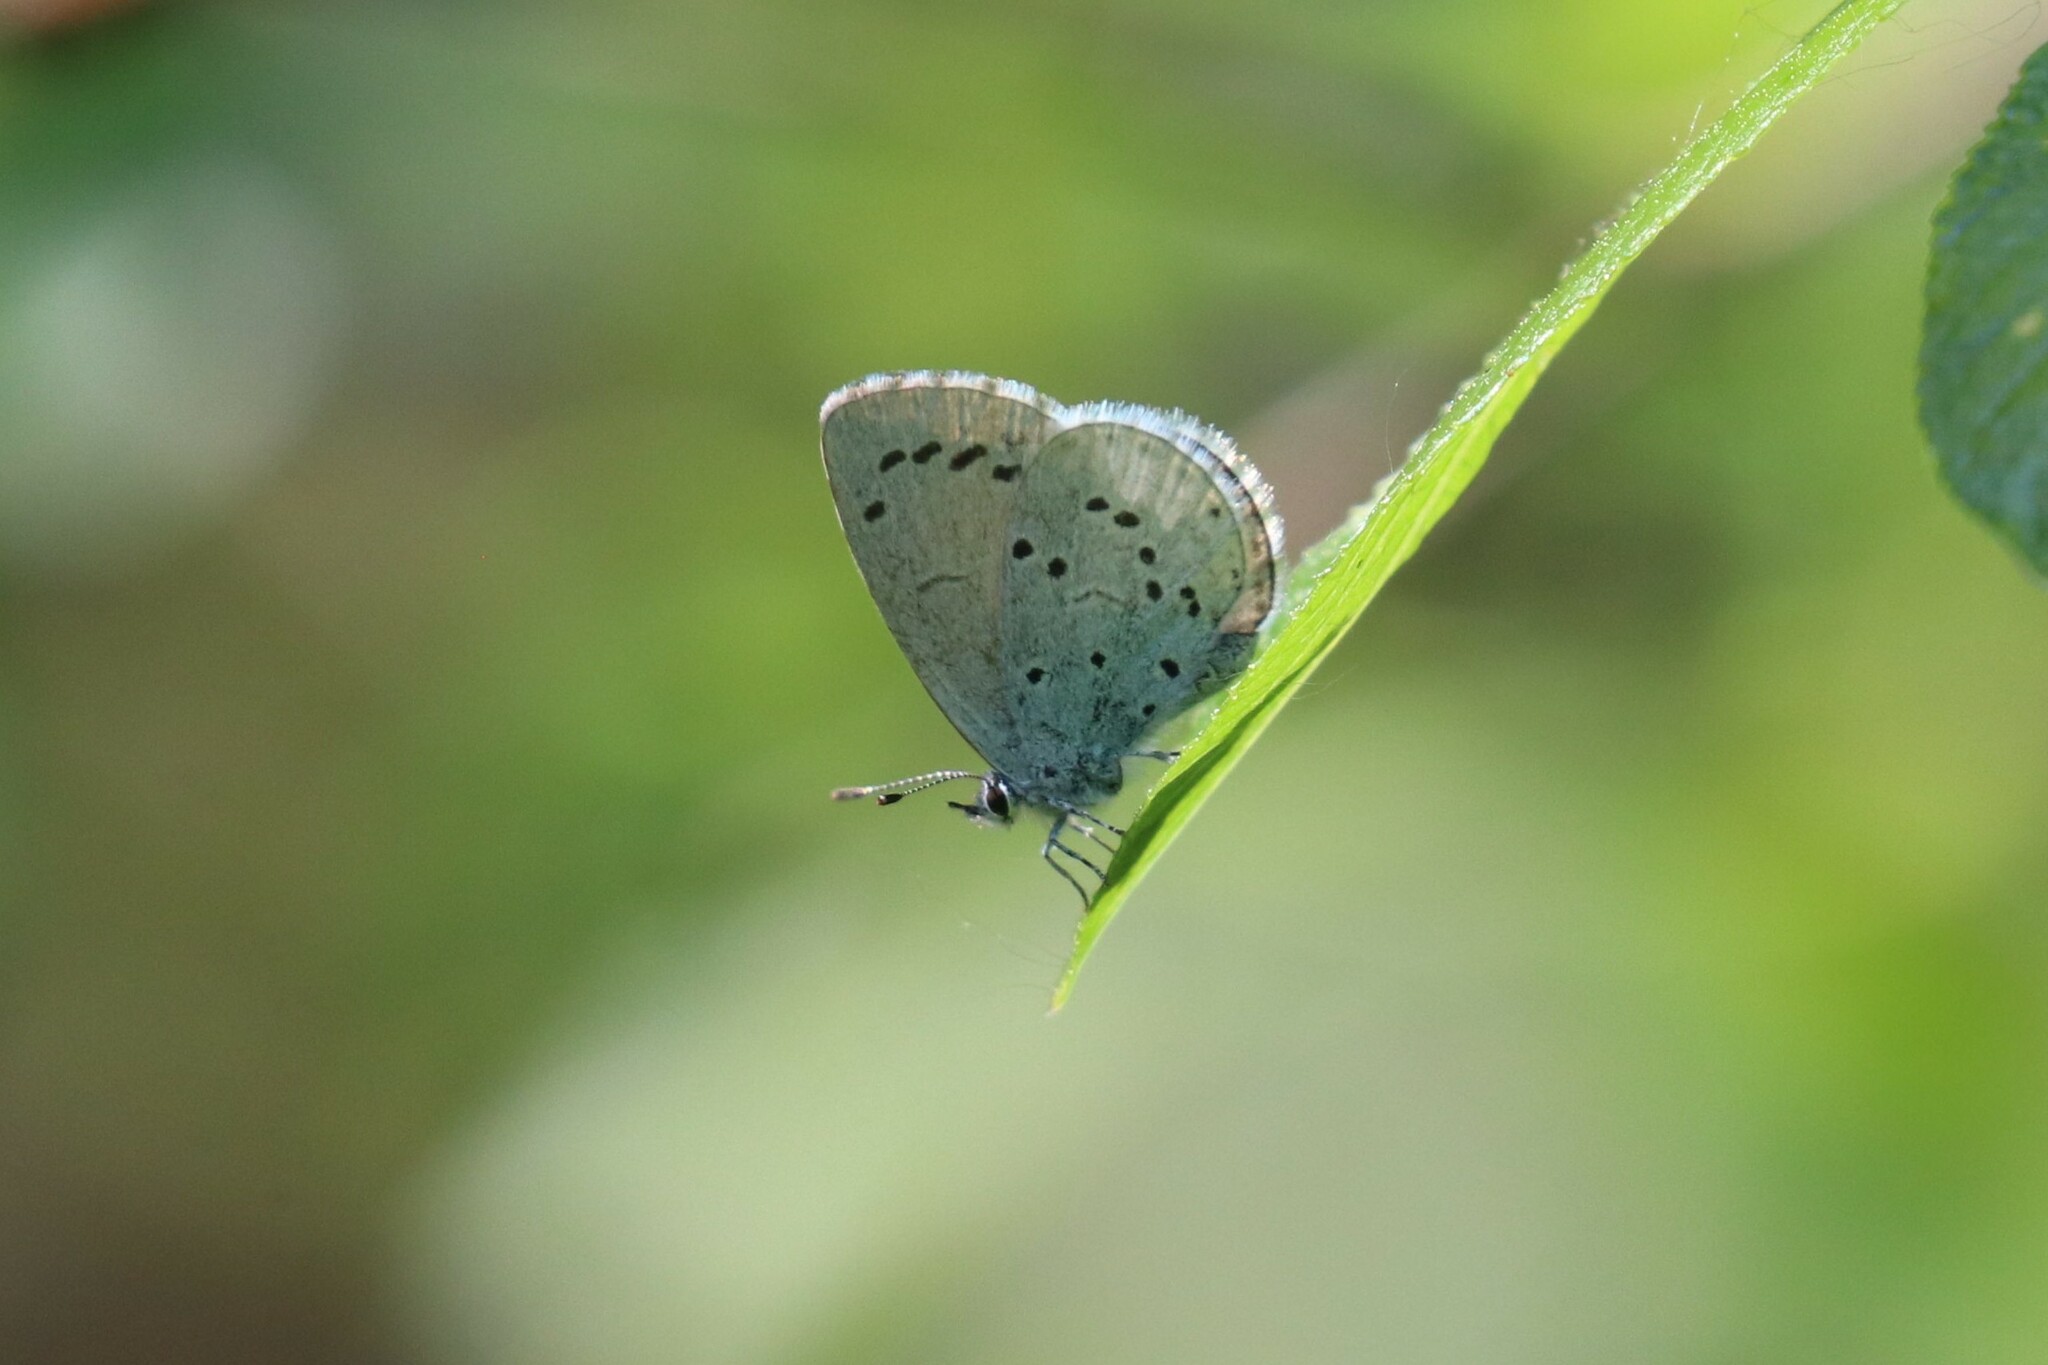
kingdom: Animalia
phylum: Arthropoda
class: Insecta
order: Lepidoptera
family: Lycaenidae
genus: Celastrina
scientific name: Celastrina argiolus
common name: Holly blue
